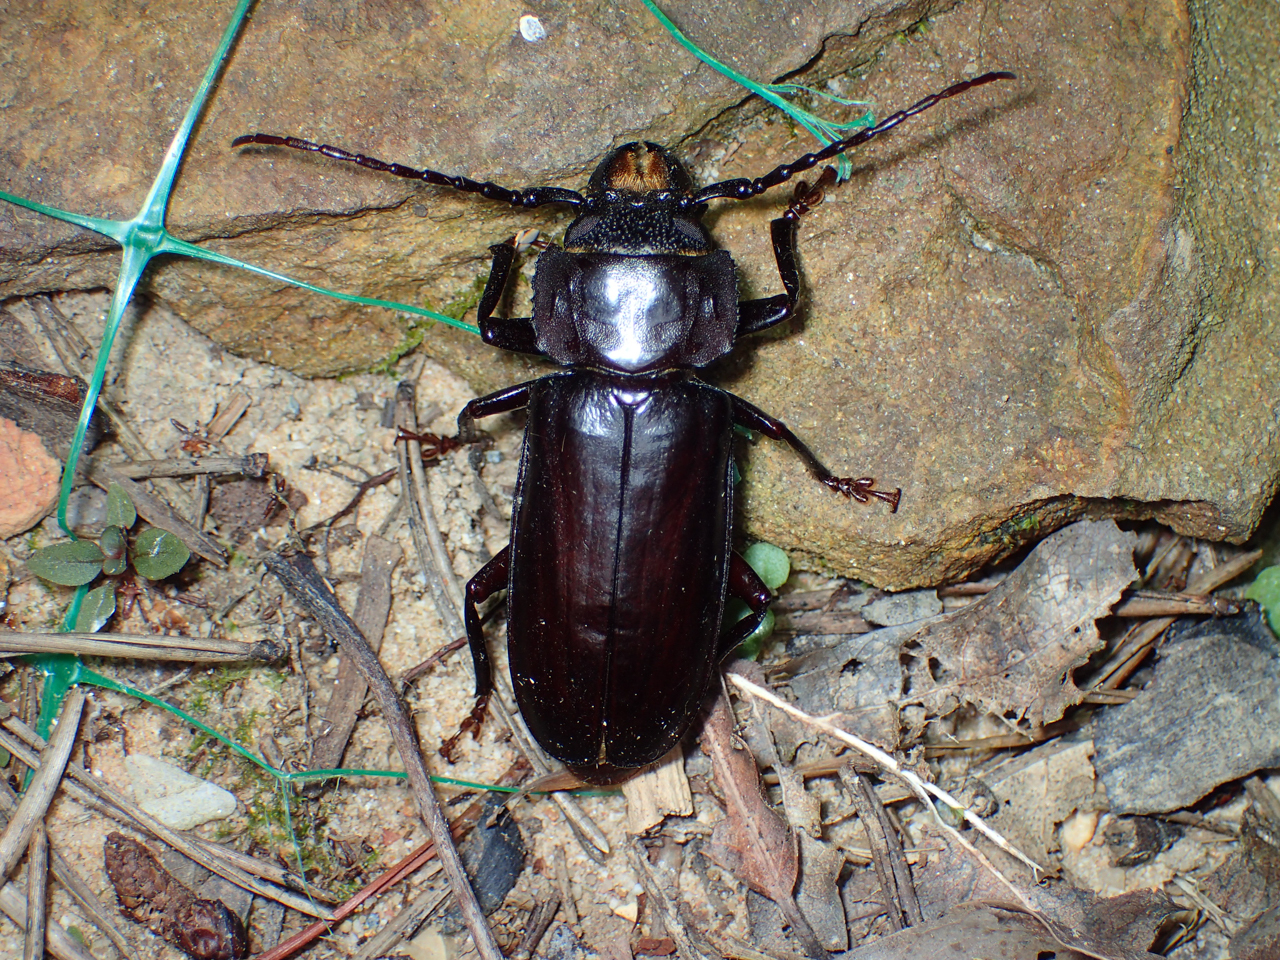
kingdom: Animalia
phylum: Arthropoda
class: Insecta
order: Coleoptera
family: Cerambycidae
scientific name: Cerambycidae
